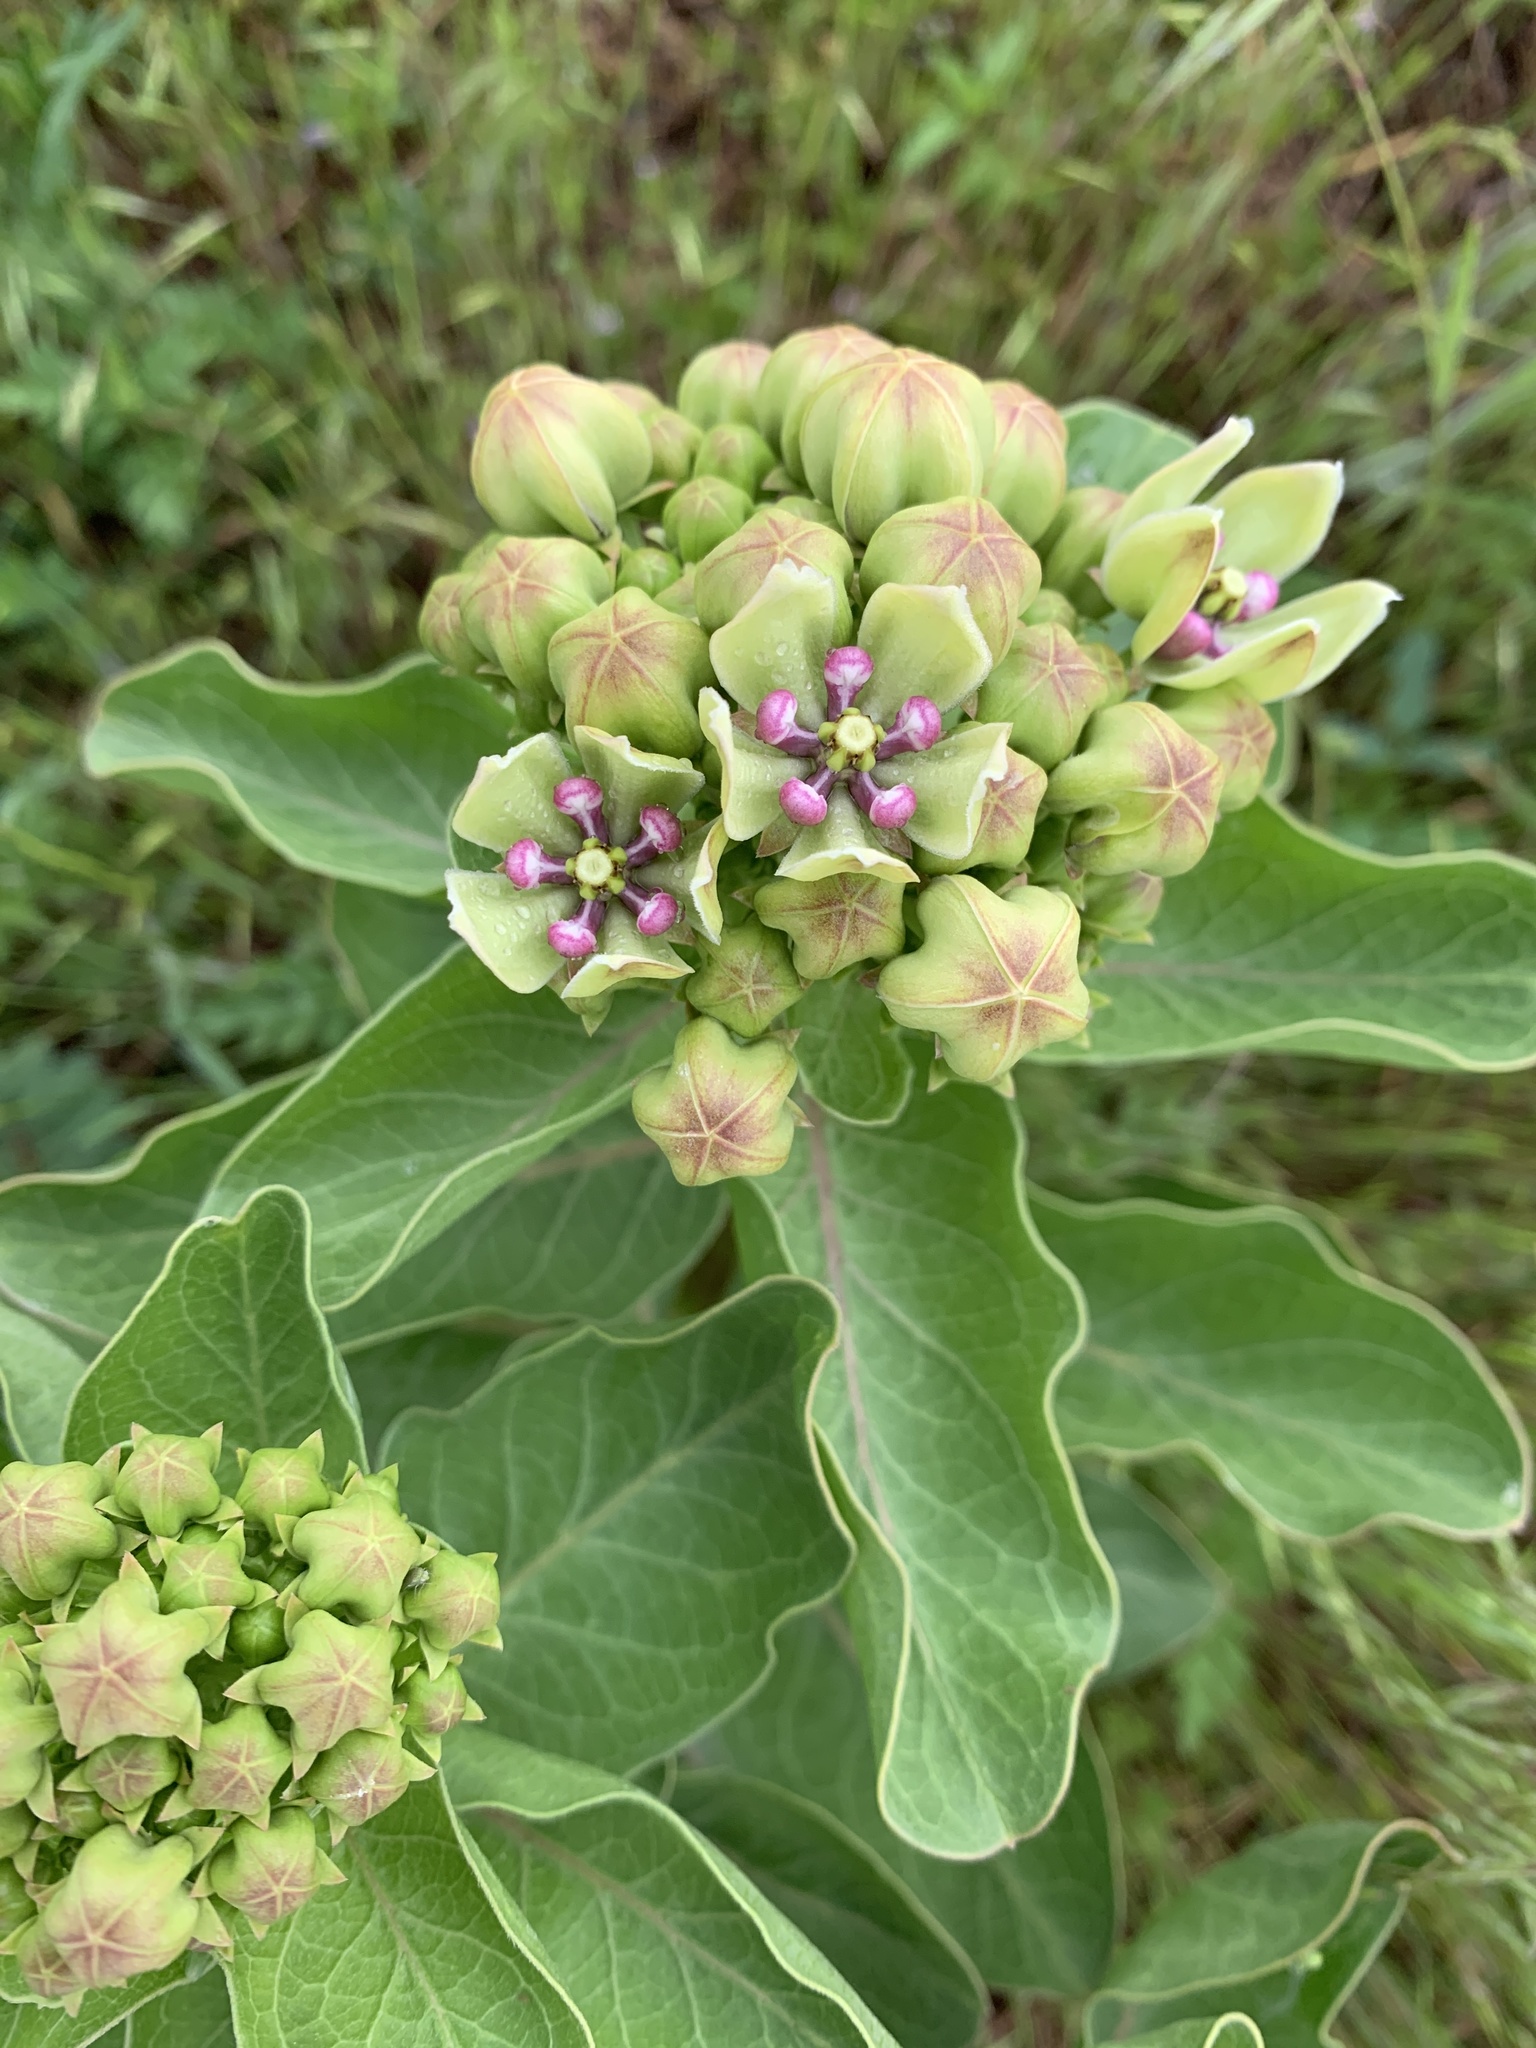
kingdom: Plantae
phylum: Tracheophyta
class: Magnoliopsida
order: Gentianales
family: Apocynaceae
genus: Asclepias
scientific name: Asclepias viridis
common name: Antelope-horns
